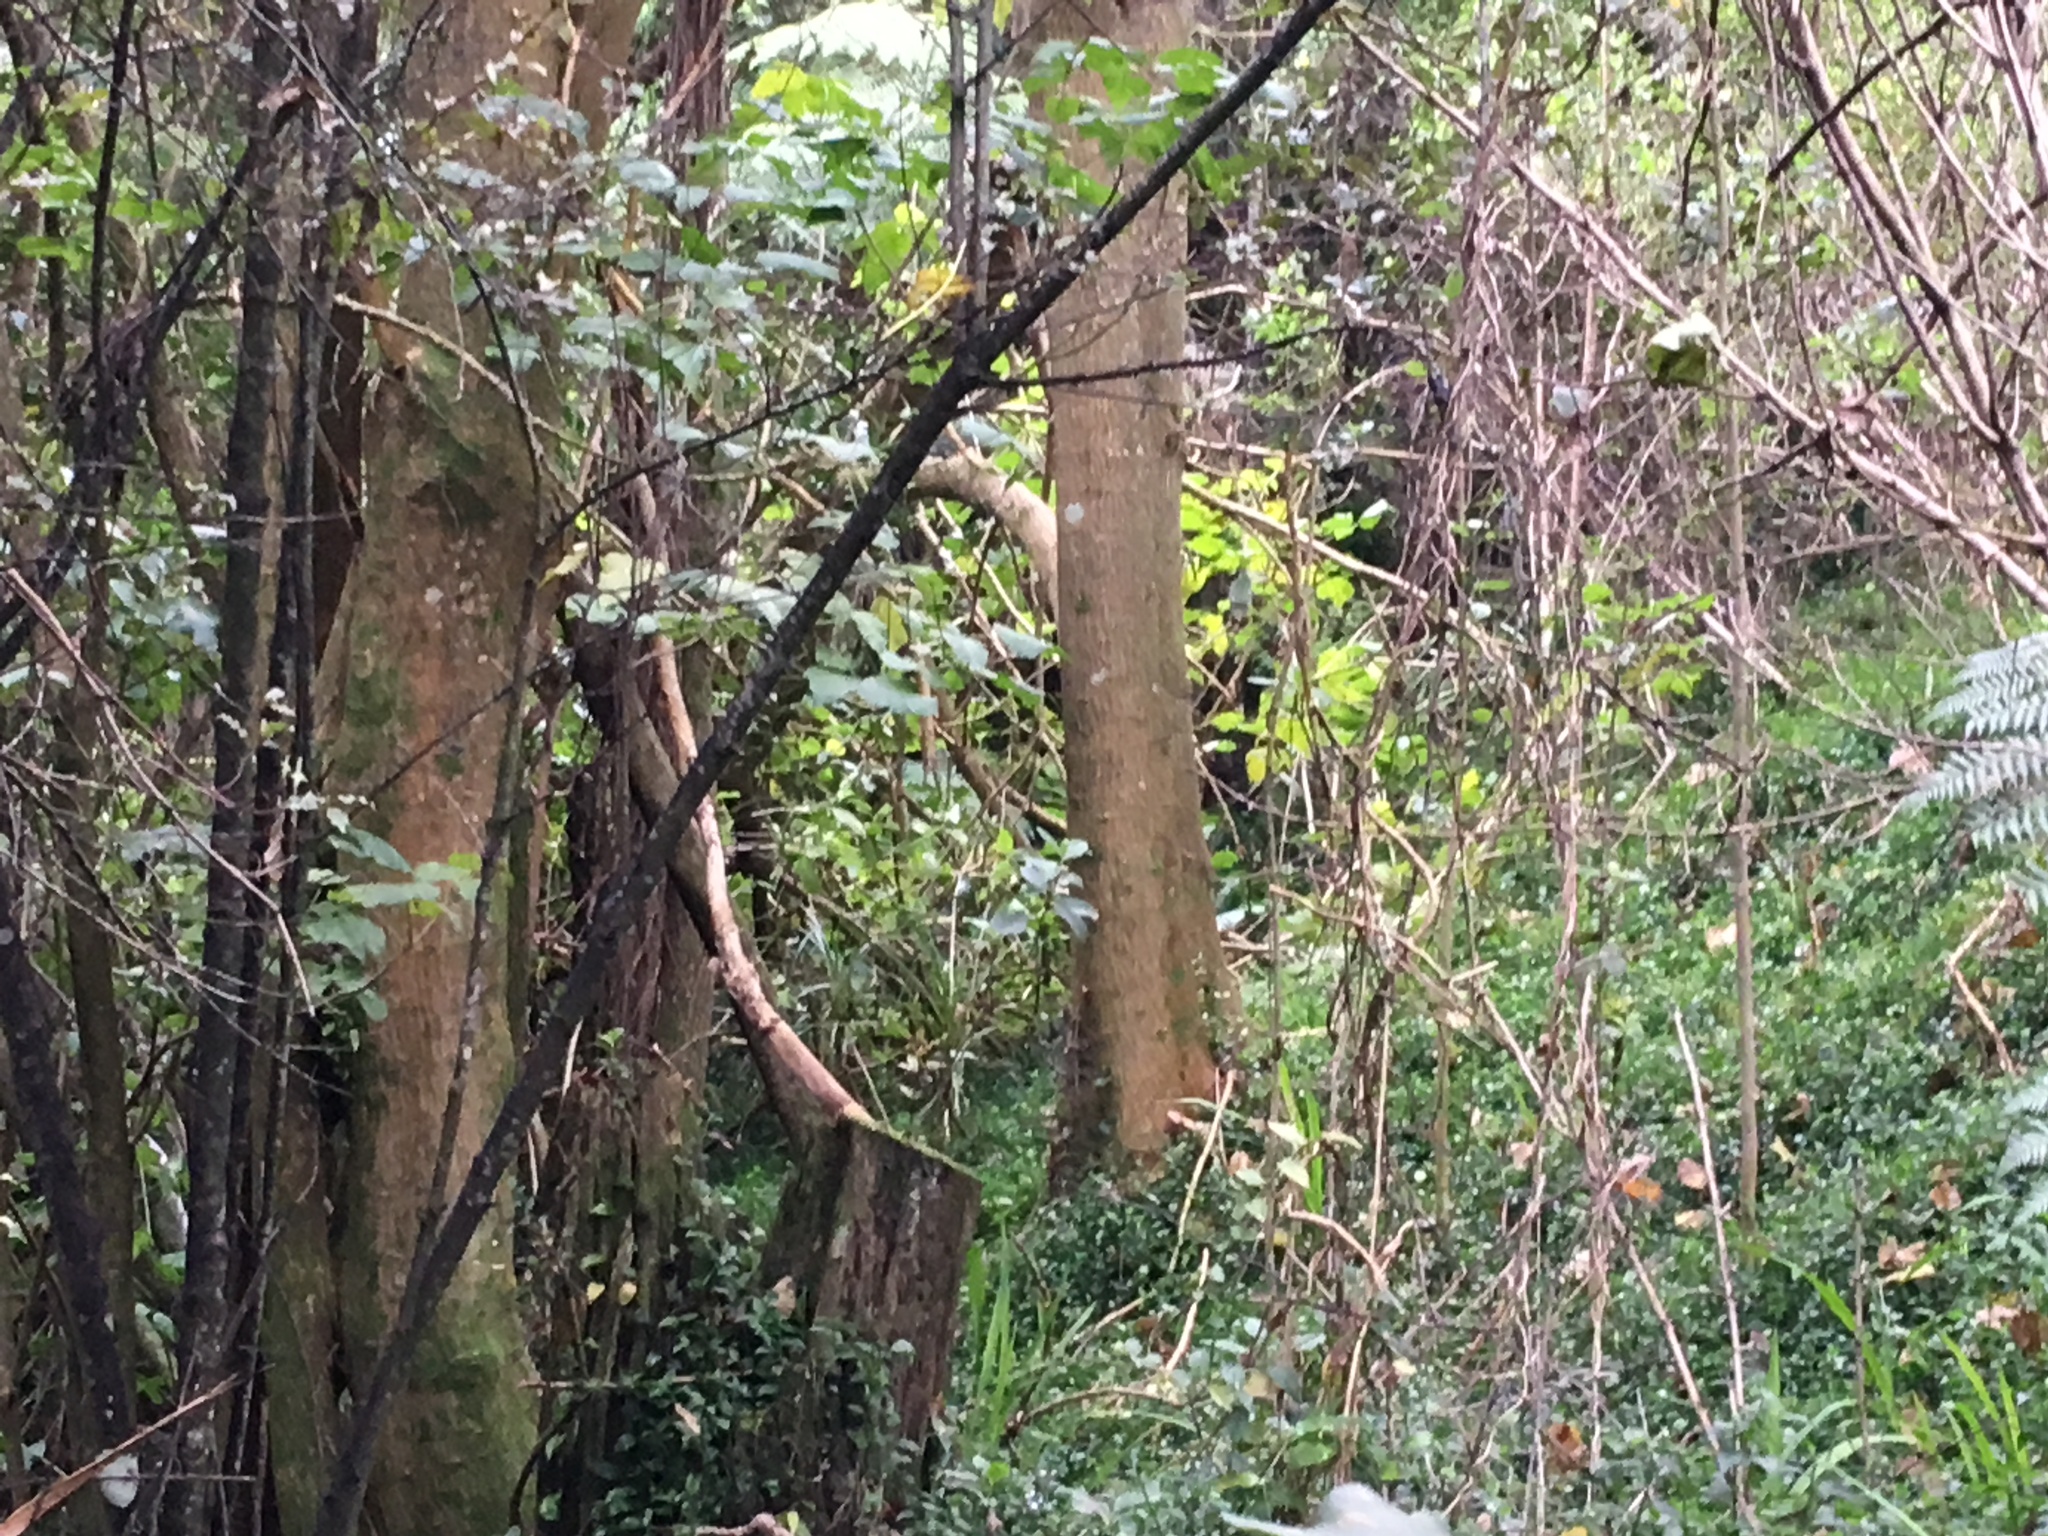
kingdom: Plantae
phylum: Tracheophyta
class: Magnoliopsida
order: Fabales
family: Fabaceae
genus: Erythrina
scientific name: Erythrina sykesii
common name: Coraltree
